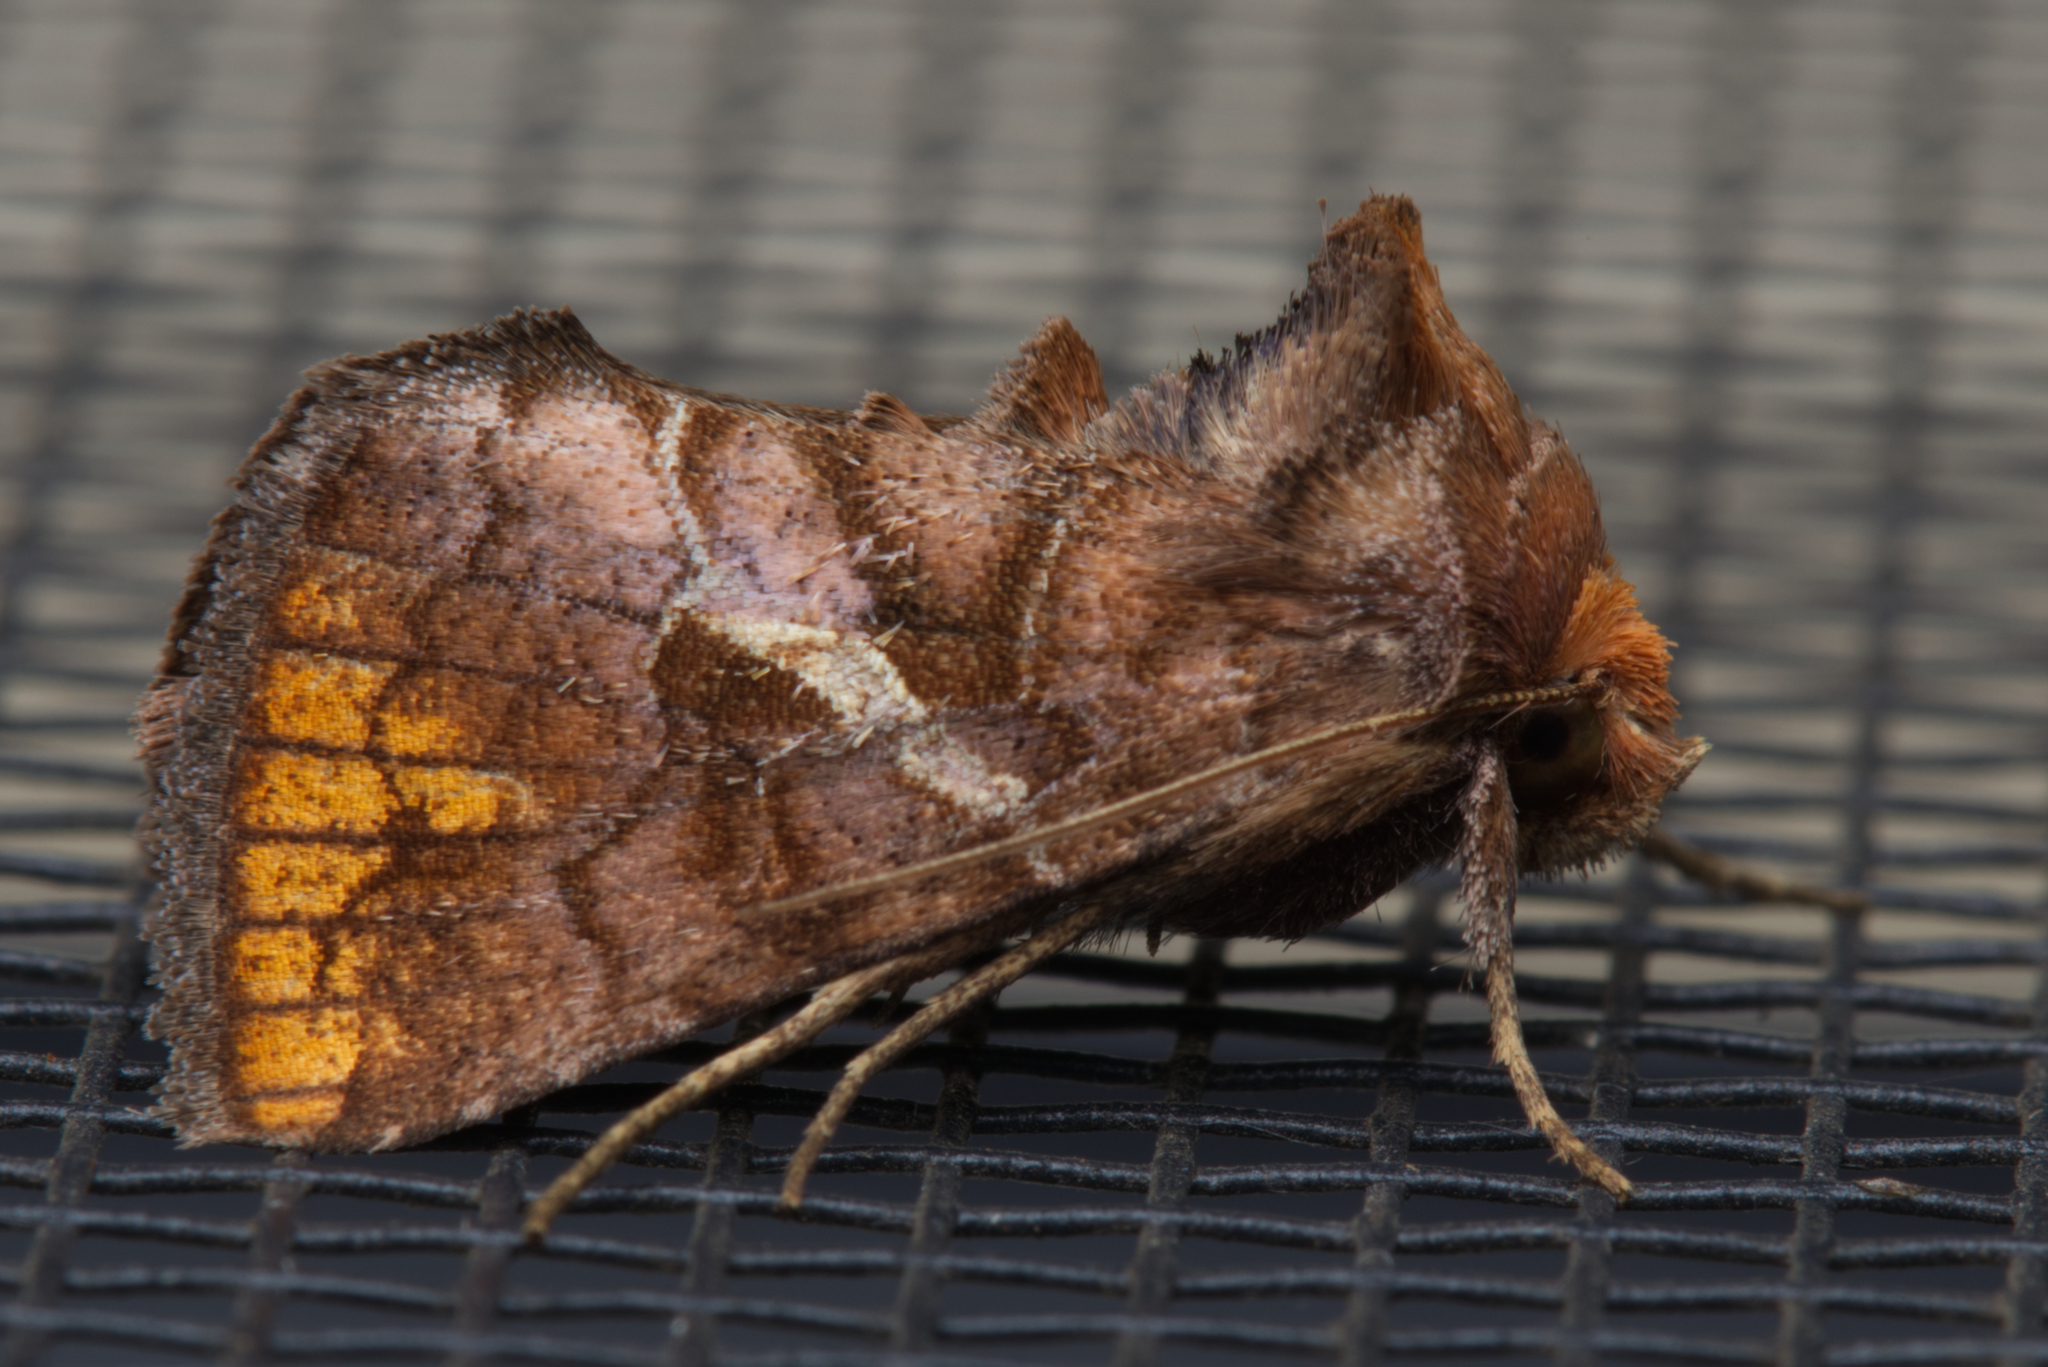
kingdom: Animalia
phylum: Arthropoda
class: Insecta
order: Lepidoptera
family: Noctuidae
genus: Zonoplusia
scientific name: Zonoplusia ochreata
